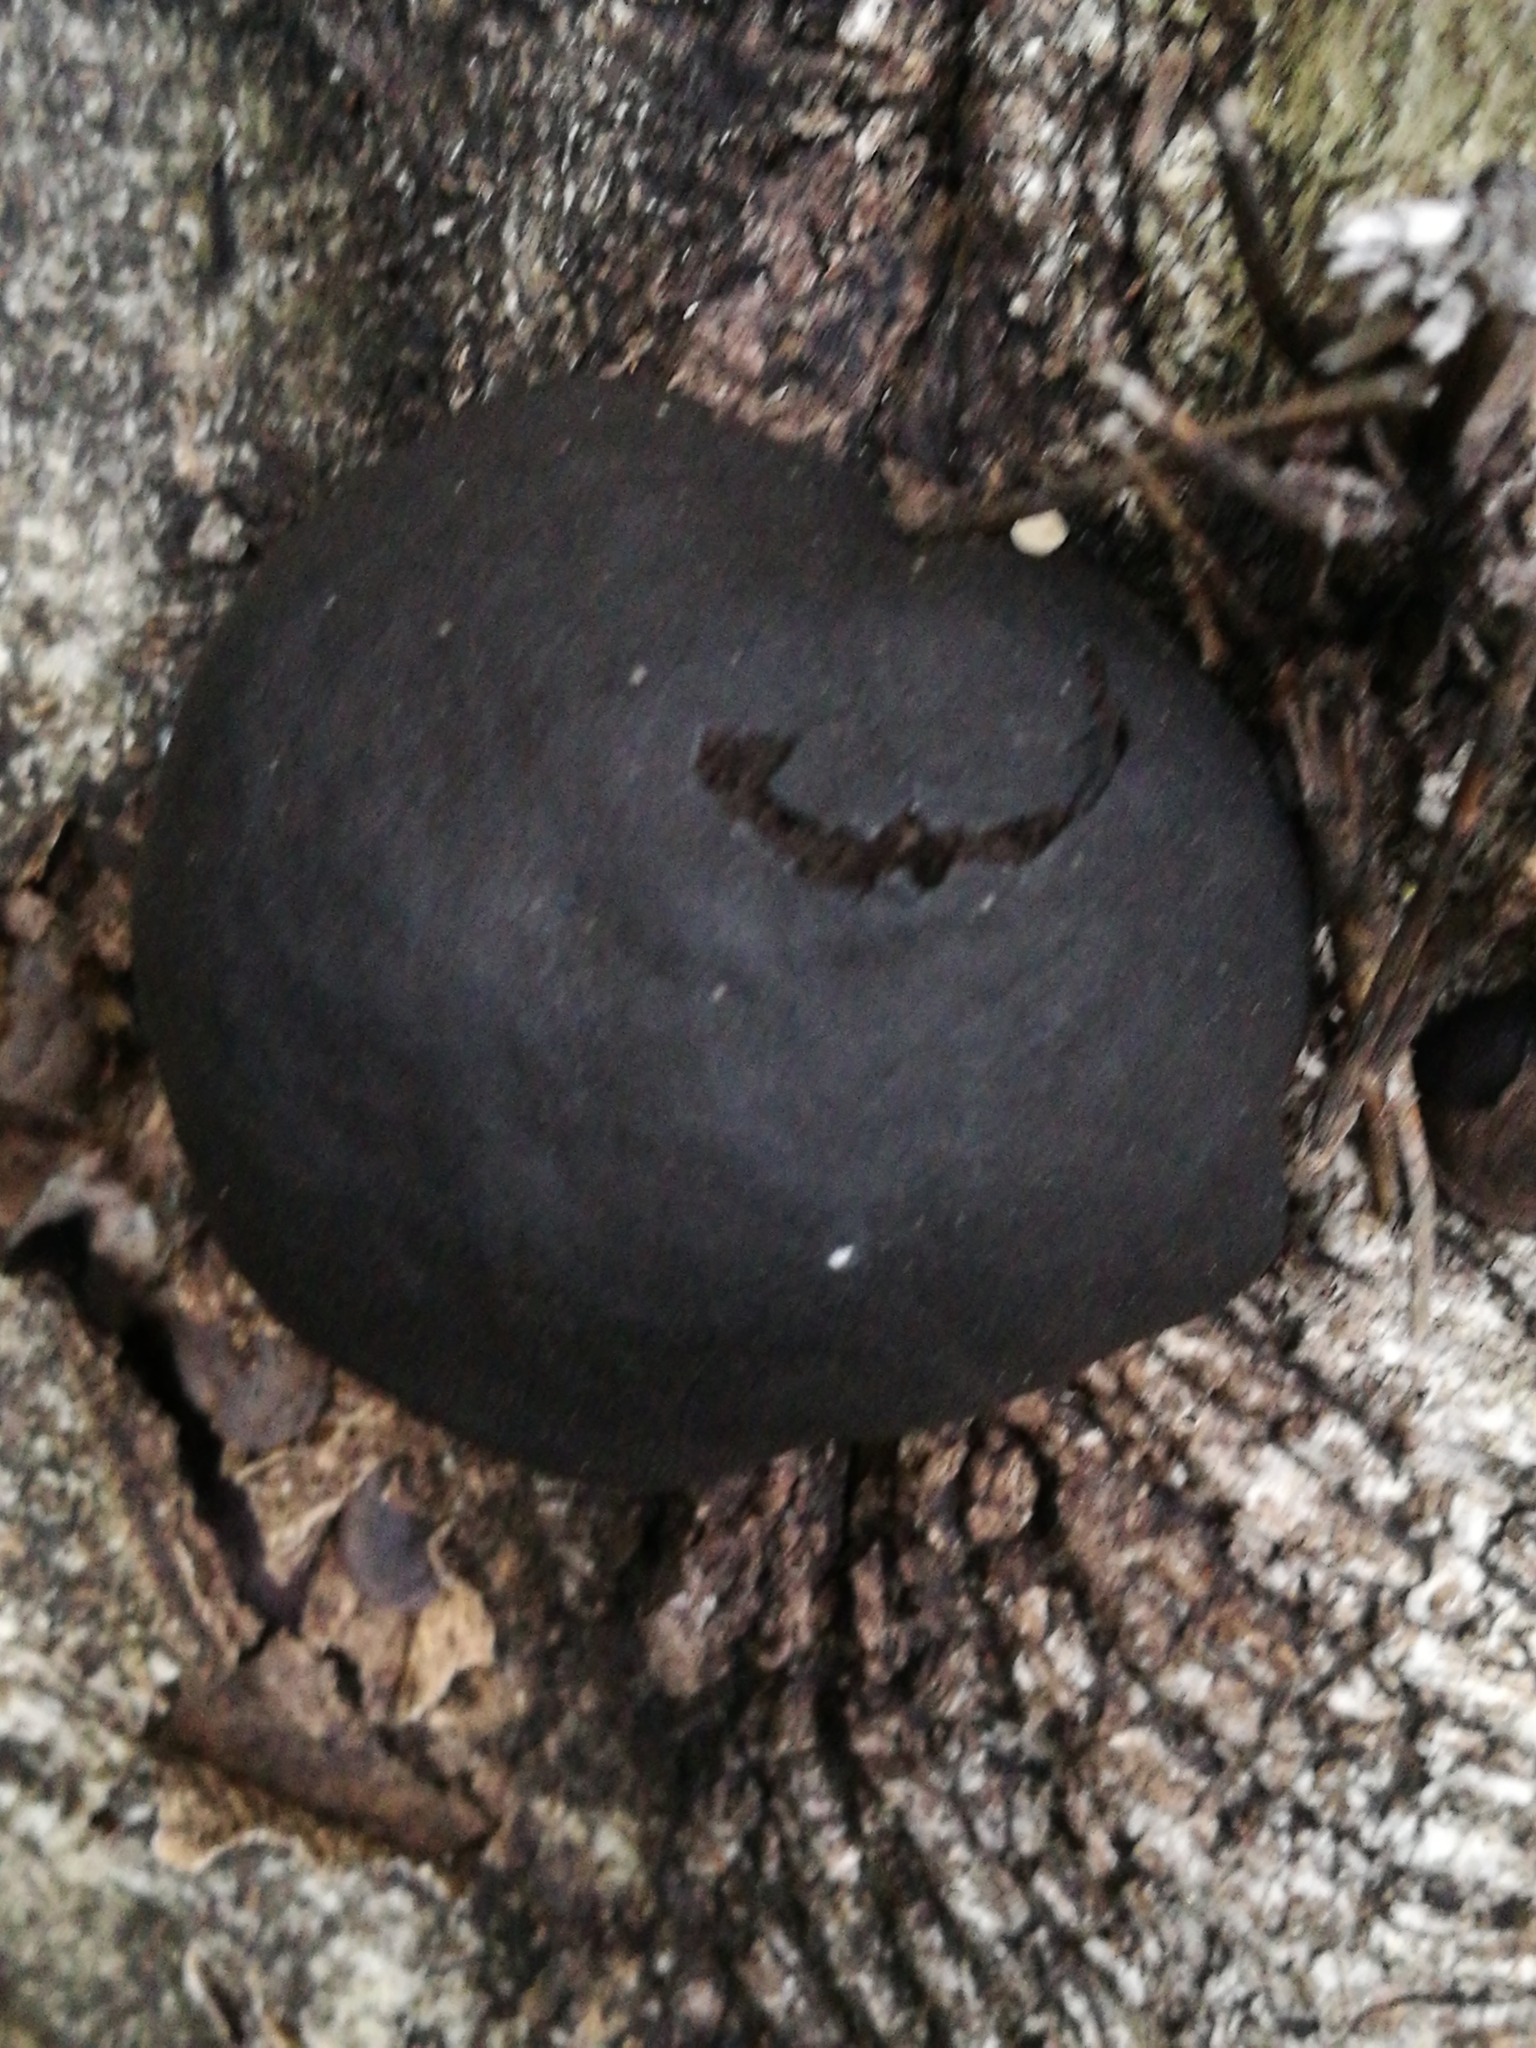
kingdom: Fungi
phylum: Ascomycota
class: Sordariomycetes
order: Xylariales
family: Hypoxylaceae
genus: Daldinia
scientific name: Daldinia
